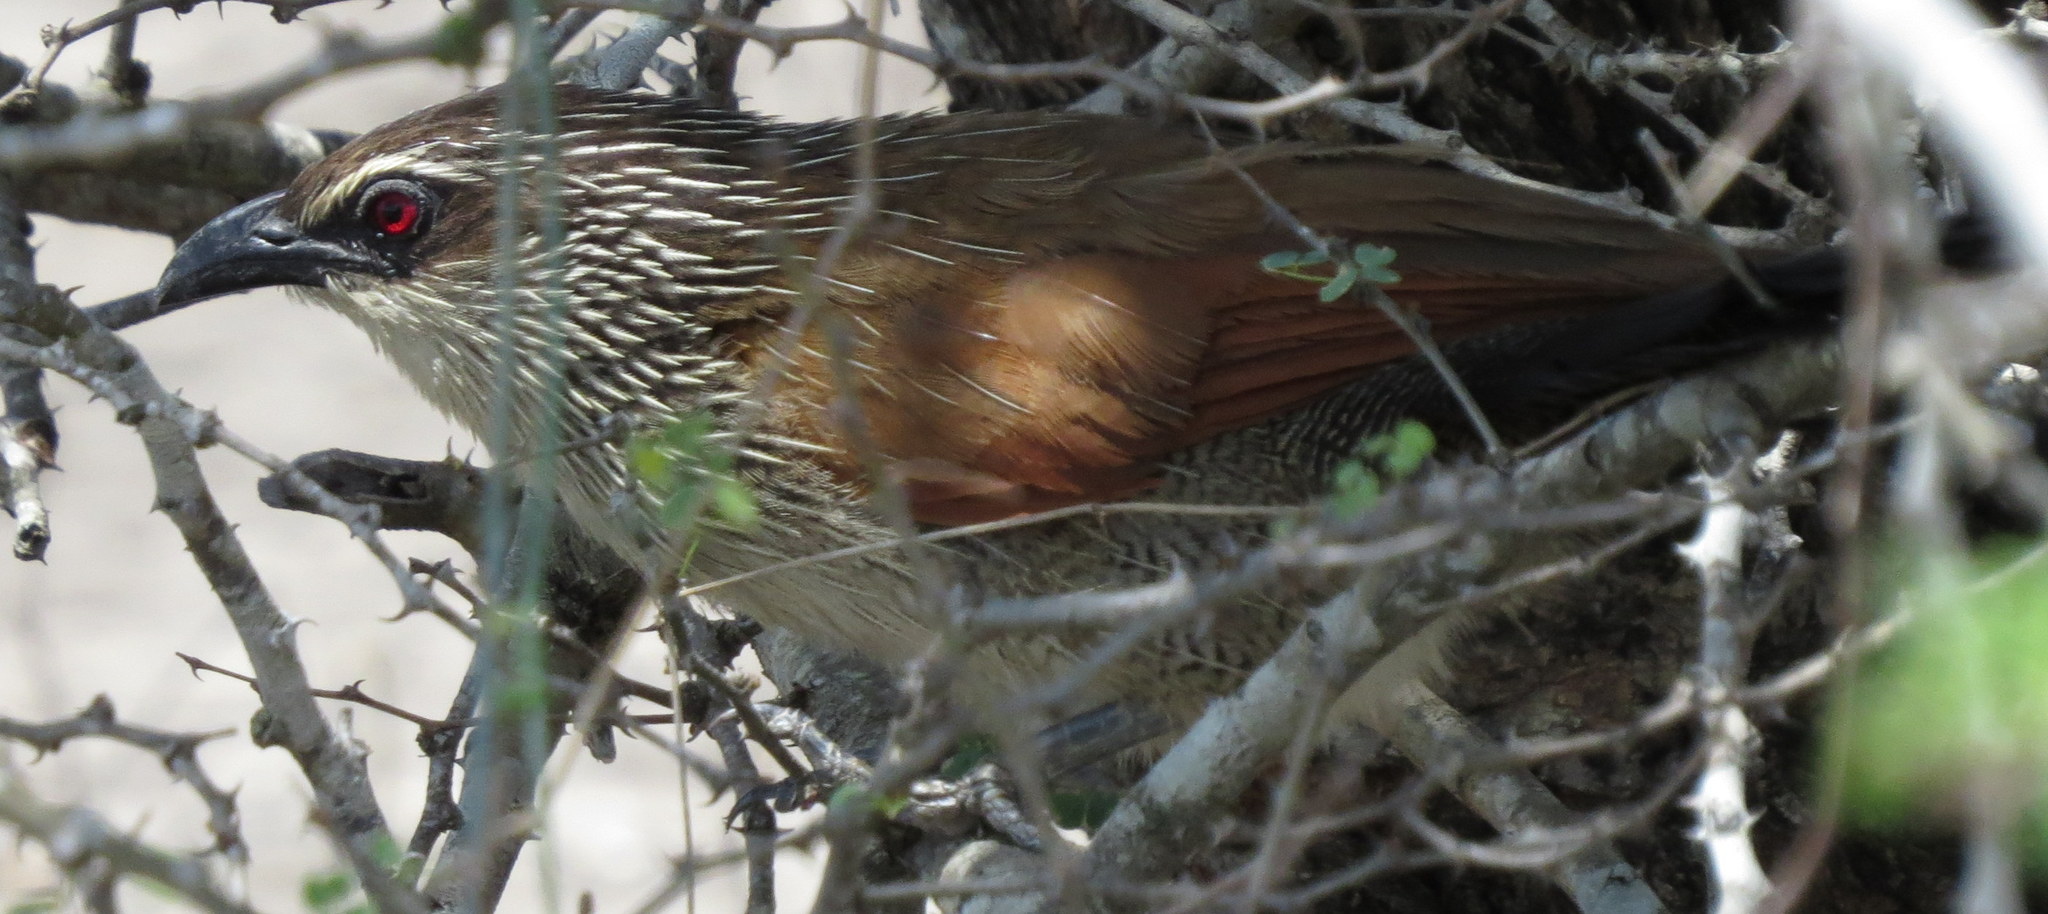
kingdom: Animalia
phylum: Chordata
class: Aves
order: Cuculiformes
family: Cuculidae
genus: Centropus
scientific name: Centropus superciliosus
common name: White-browed coucal
